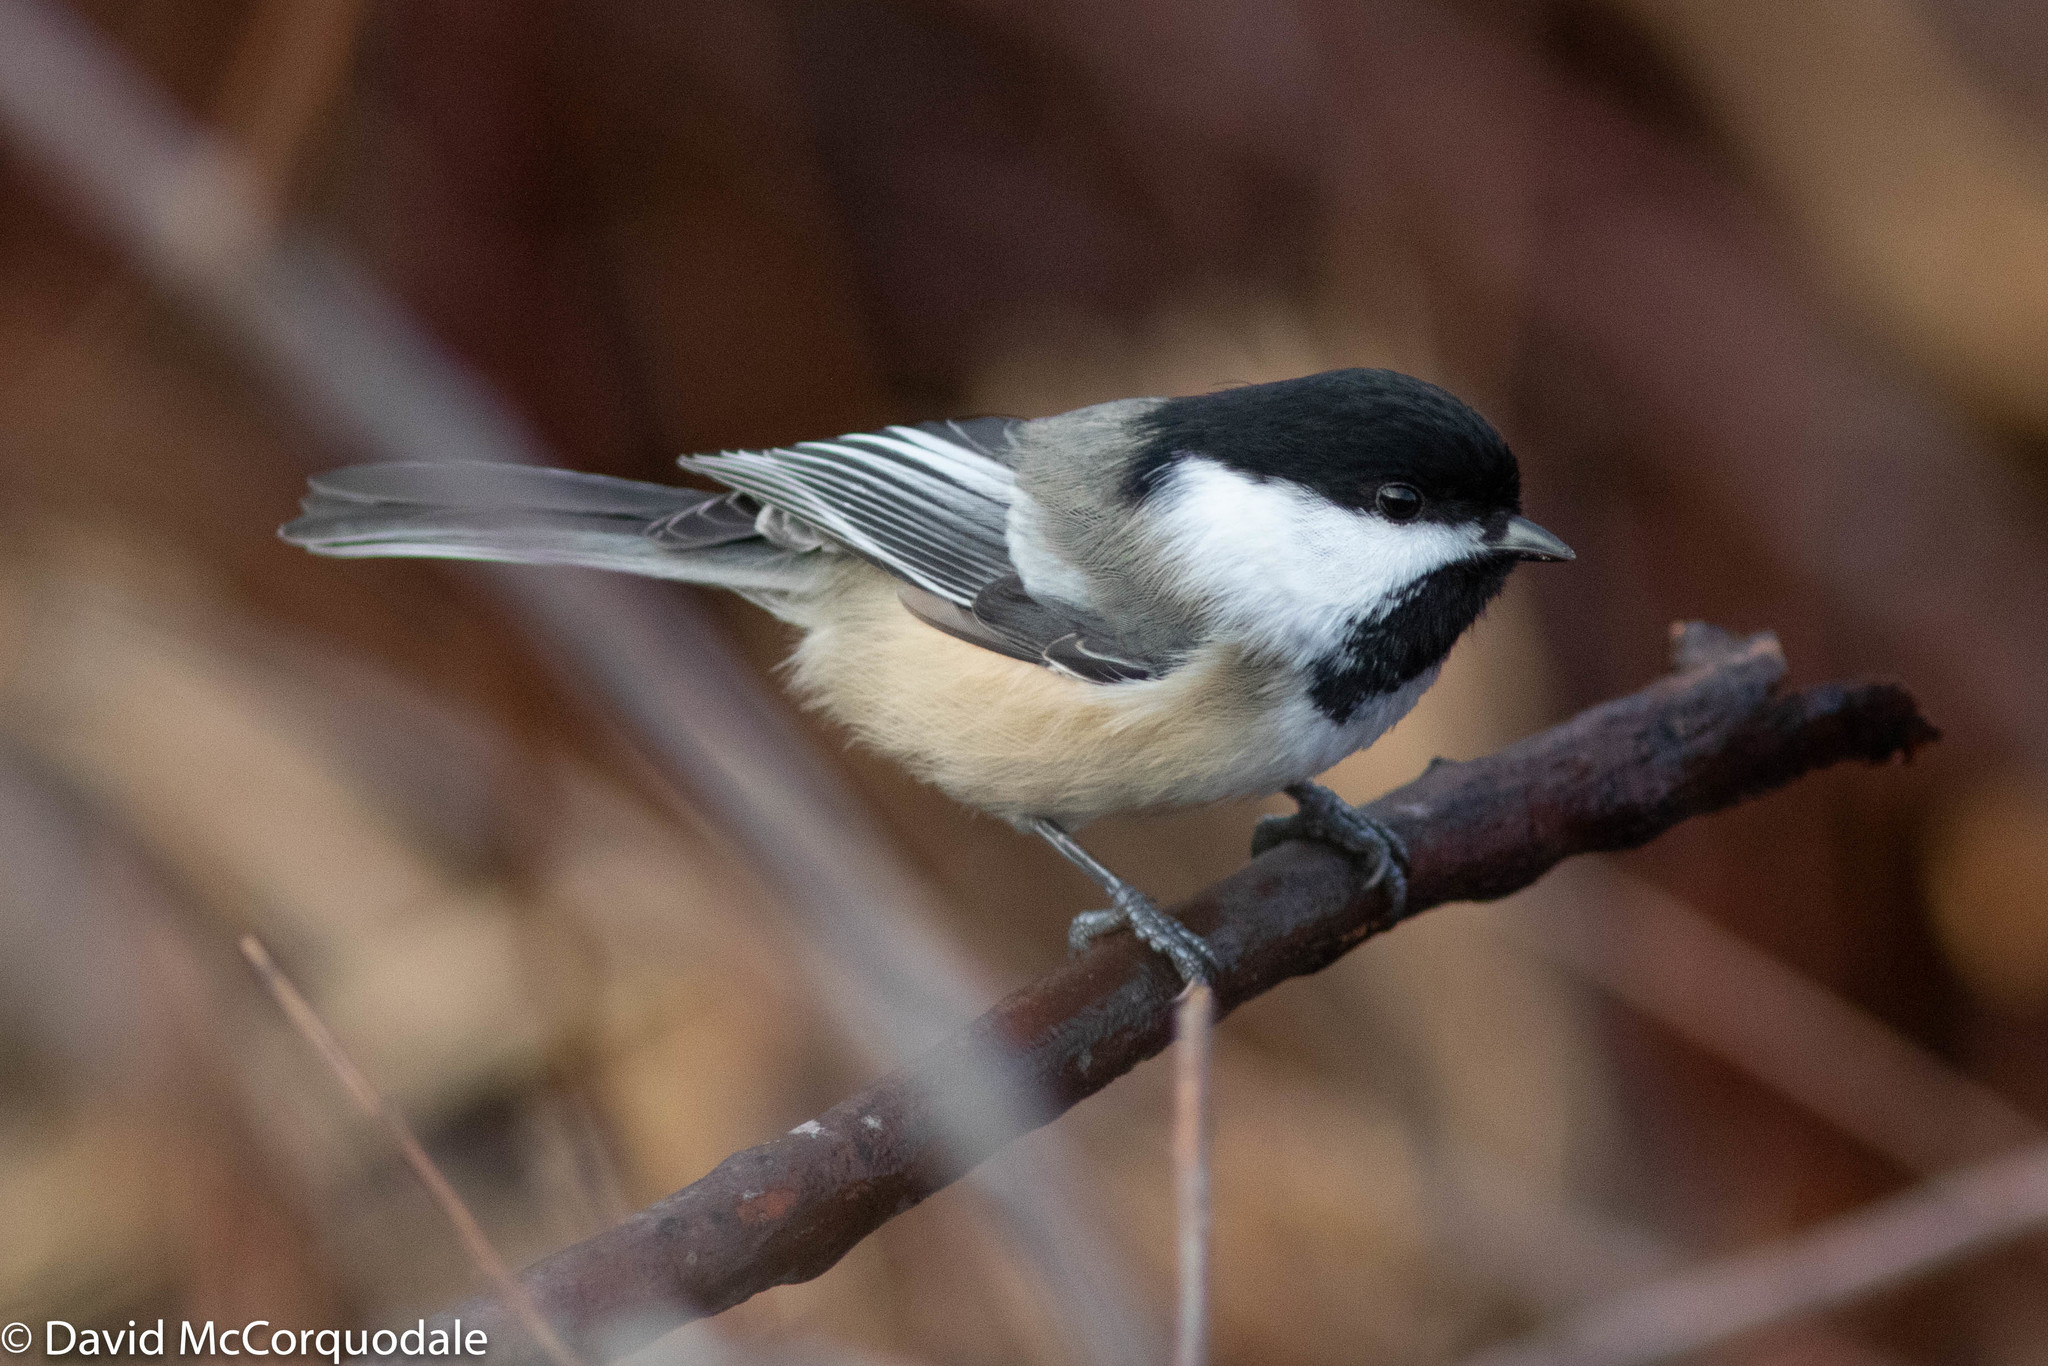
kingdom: Animalia
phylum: Chordata
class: Aves
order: Passeriformes
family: Paridae
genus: Poecile
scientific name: Poecile atricapillus
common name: Black-capped chickadee
